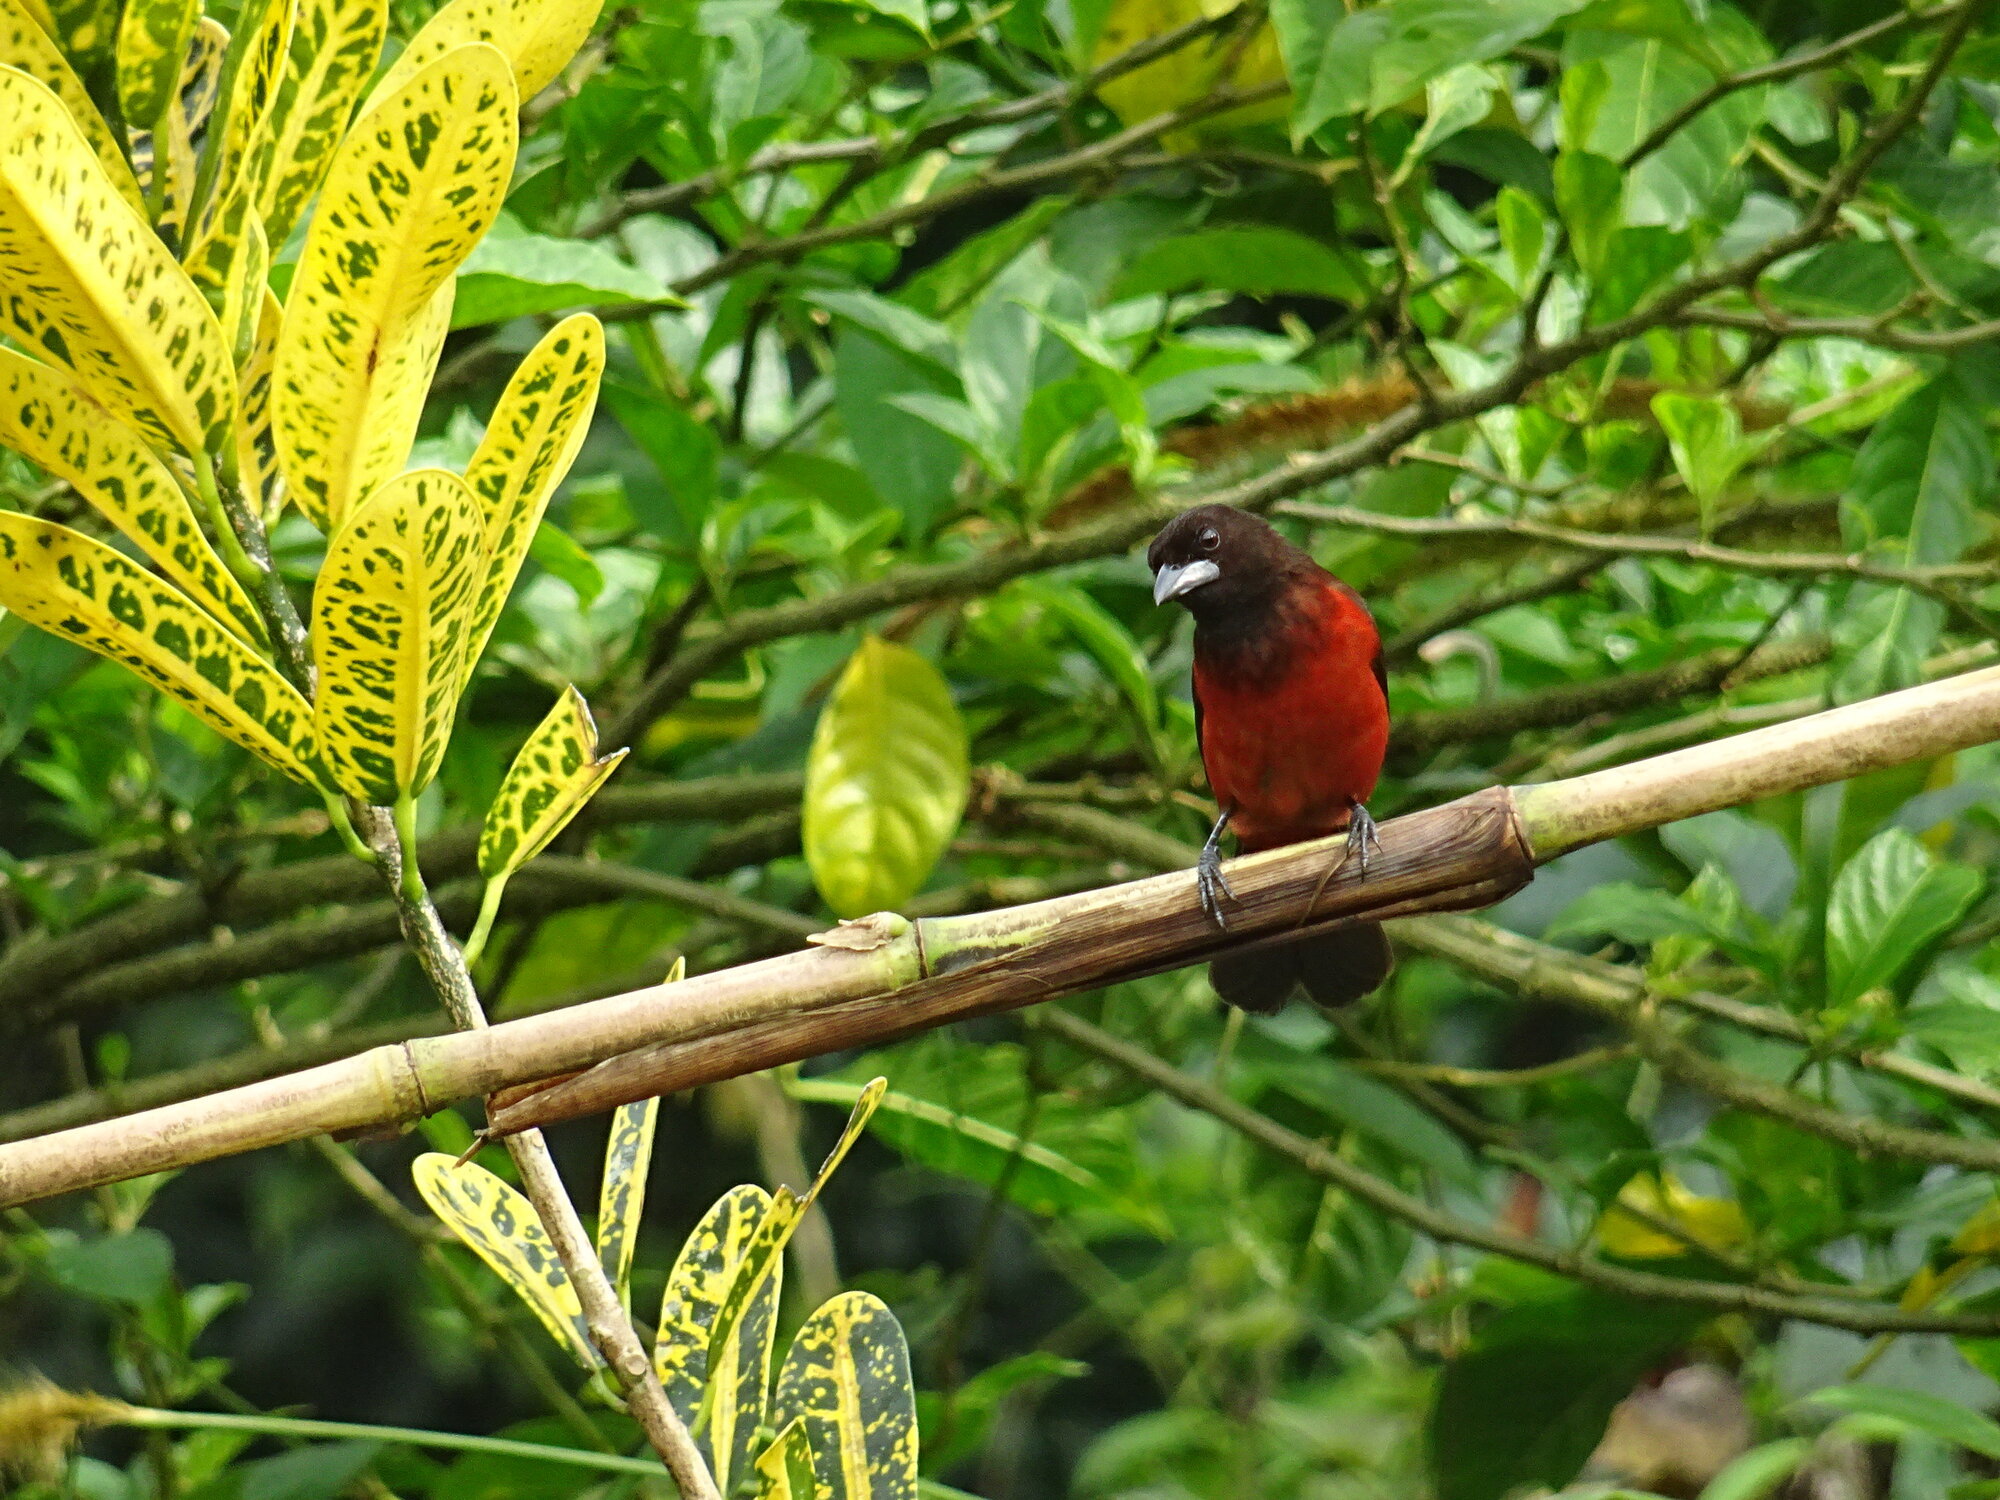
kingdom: Animalia
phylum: Chordata
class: Aves
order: Passeriformes
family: Thraupidae
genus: Ramphocelus
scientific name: Ramphocelus dimidiatus
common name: Crimson-backed tanager
